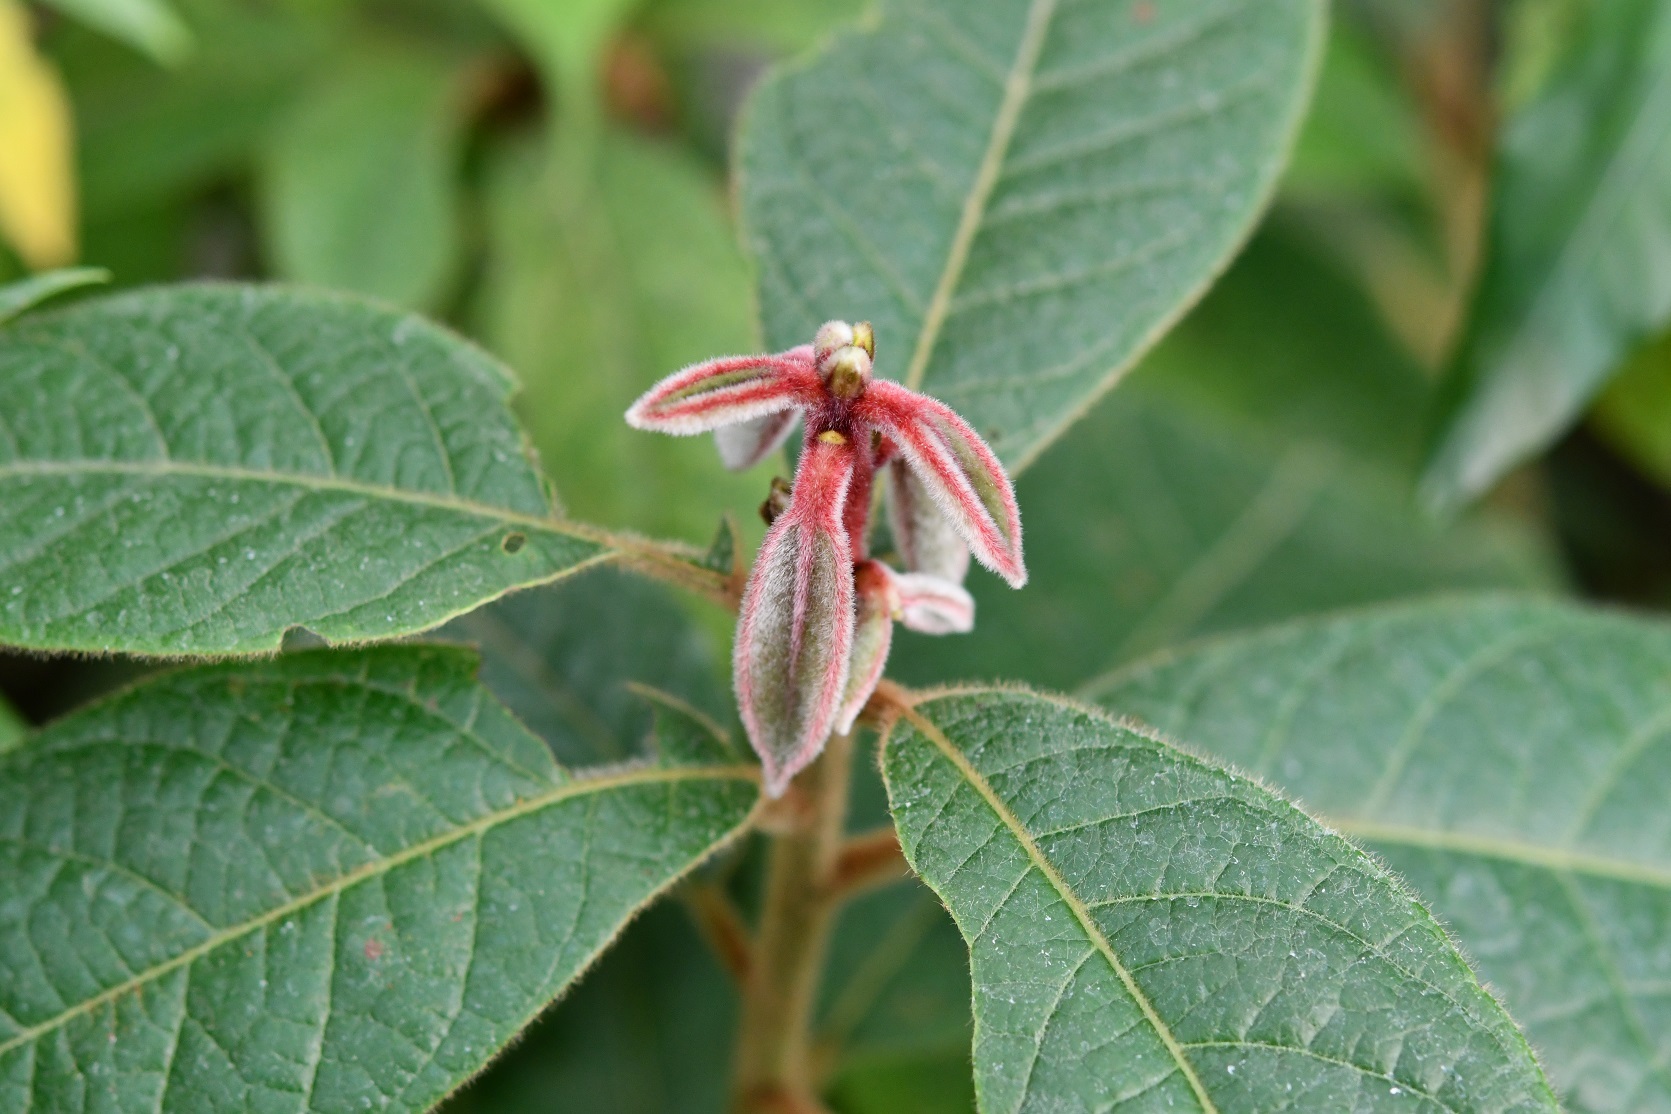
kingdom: Plantae
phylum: Tracheophyta
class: Magnoliopsida
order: Laurales
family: Lauraceae
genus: Ocotea
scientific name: Ocotea macrophylla
